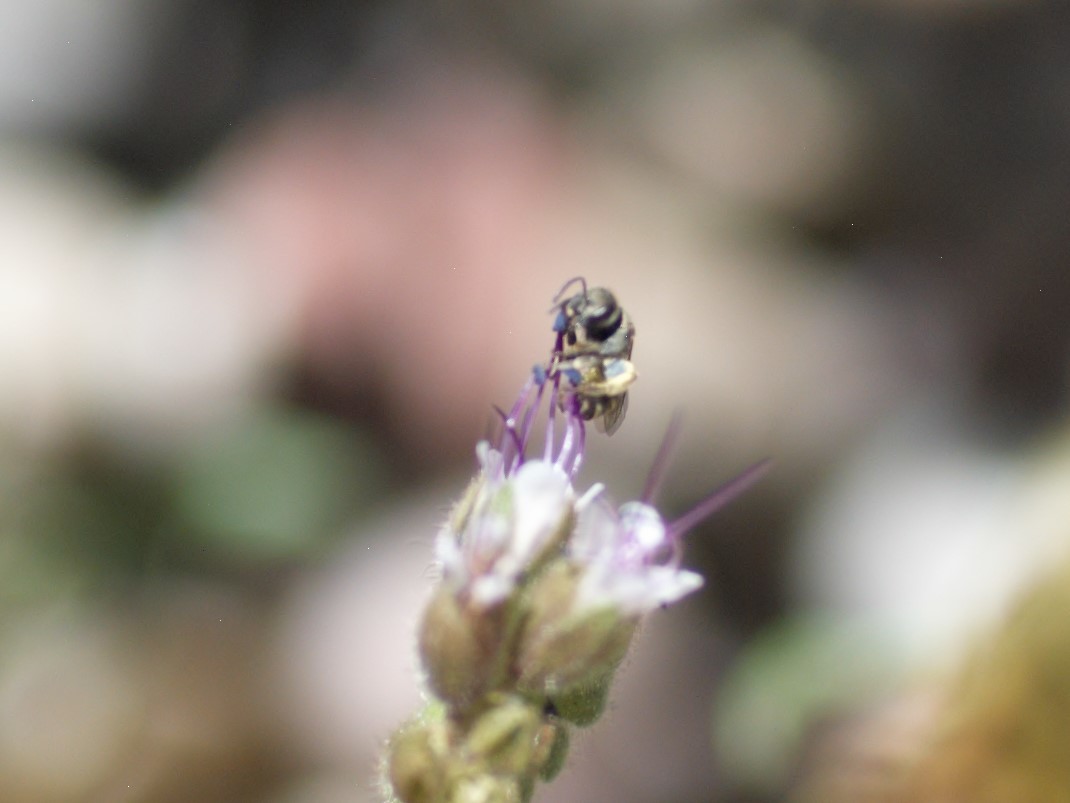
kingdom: Animalia
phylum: Arthropoda
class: Insecta
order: Hymenoptera
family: Halictidae
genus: Halictus
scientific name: Halictus tripartitus
